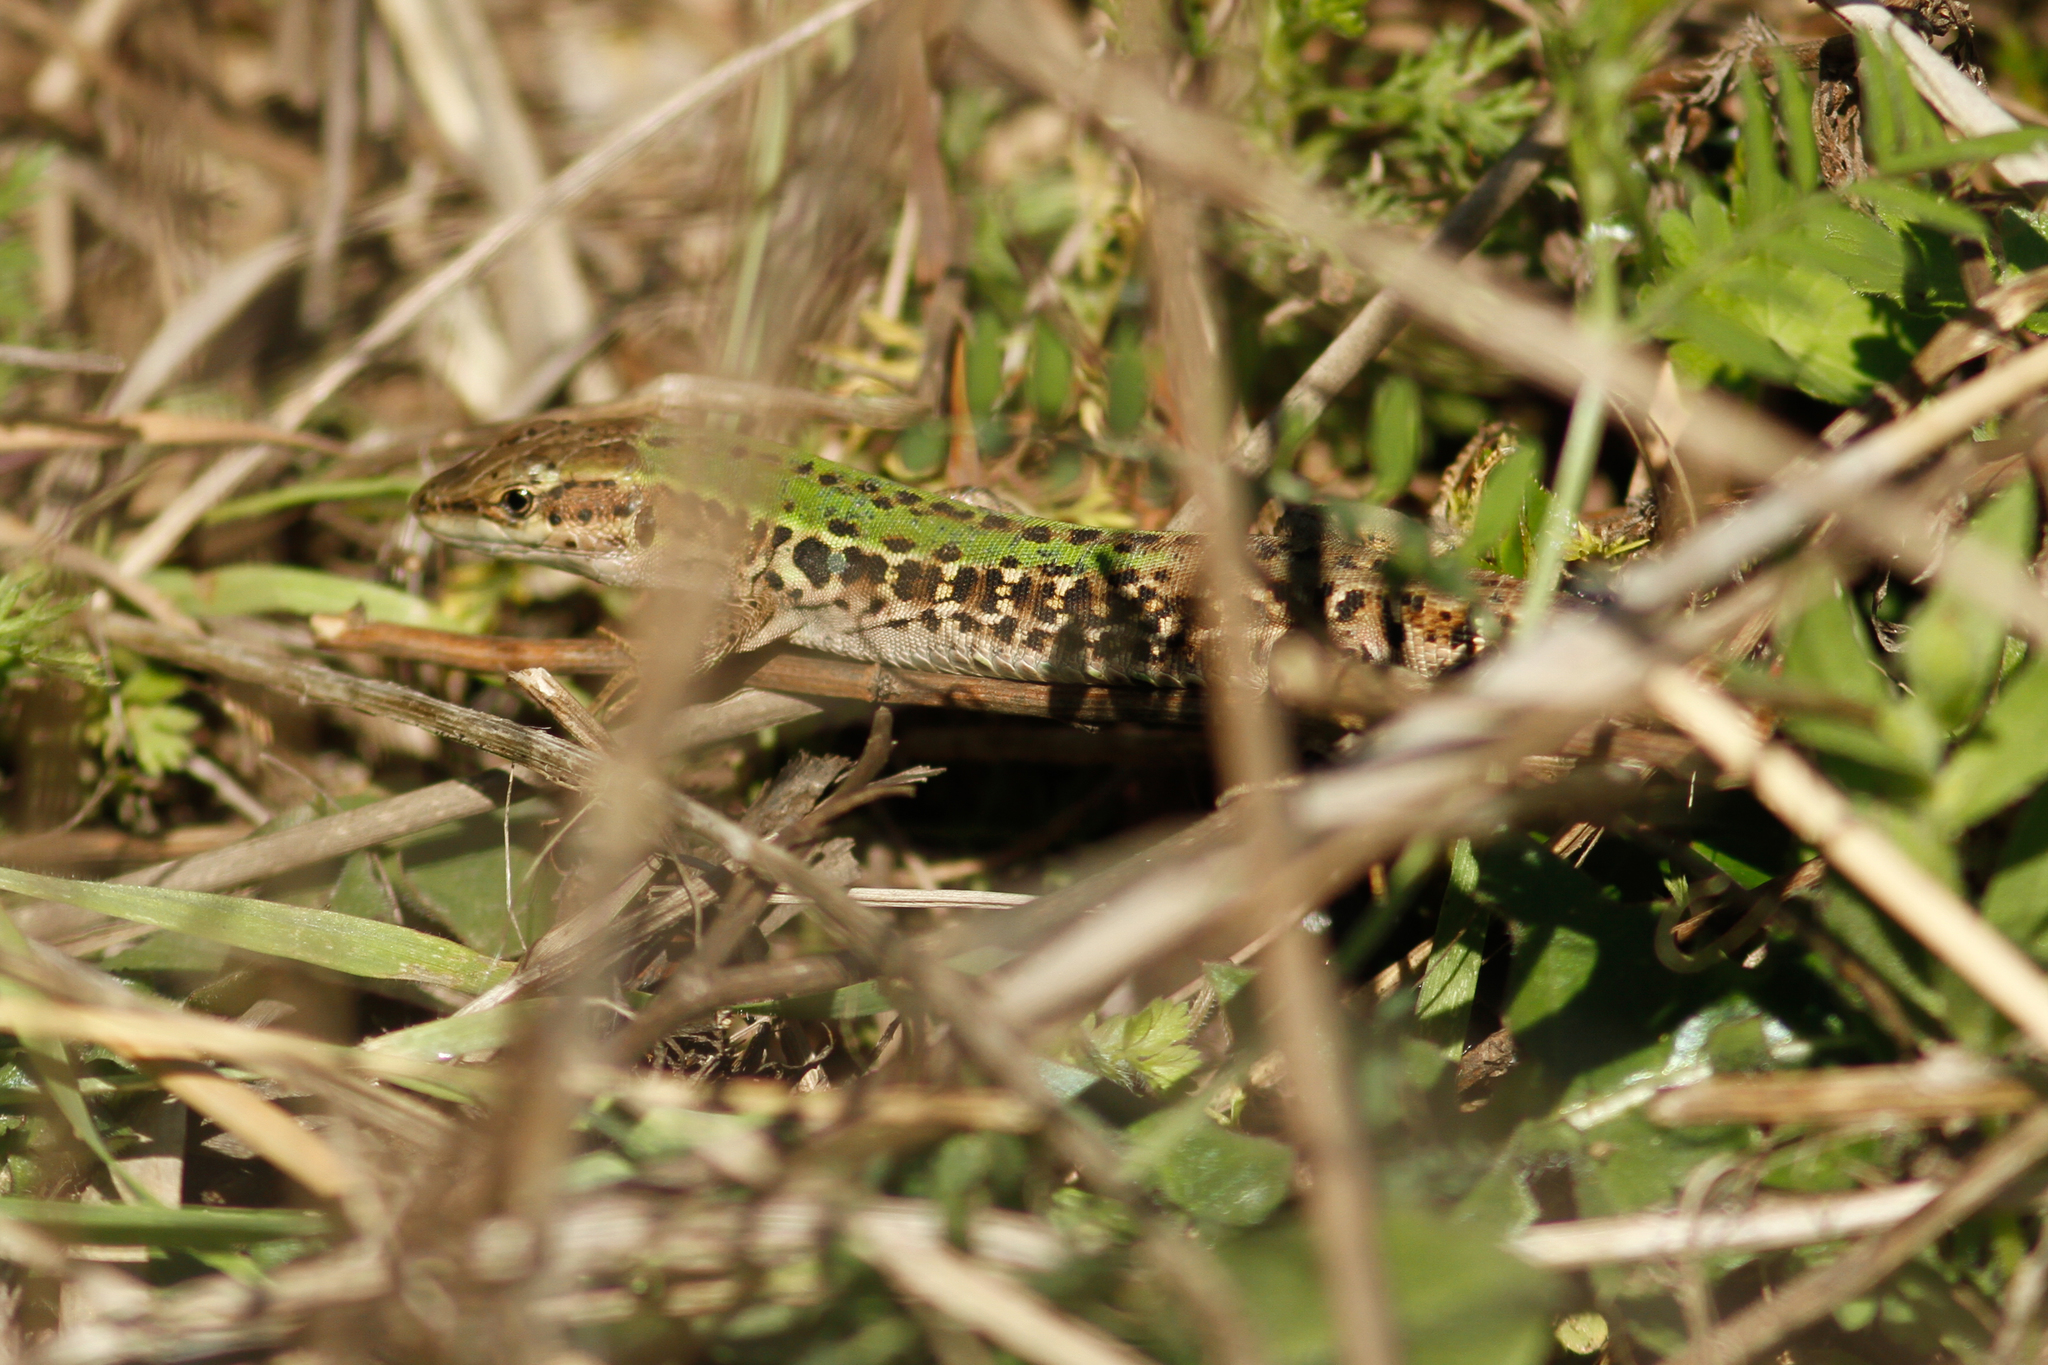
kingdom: Animalia
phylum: Chordata
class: Squamata
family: Lacertidae
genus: Podarcis
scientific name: Podarcis siculus
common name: Italian wall lizard
